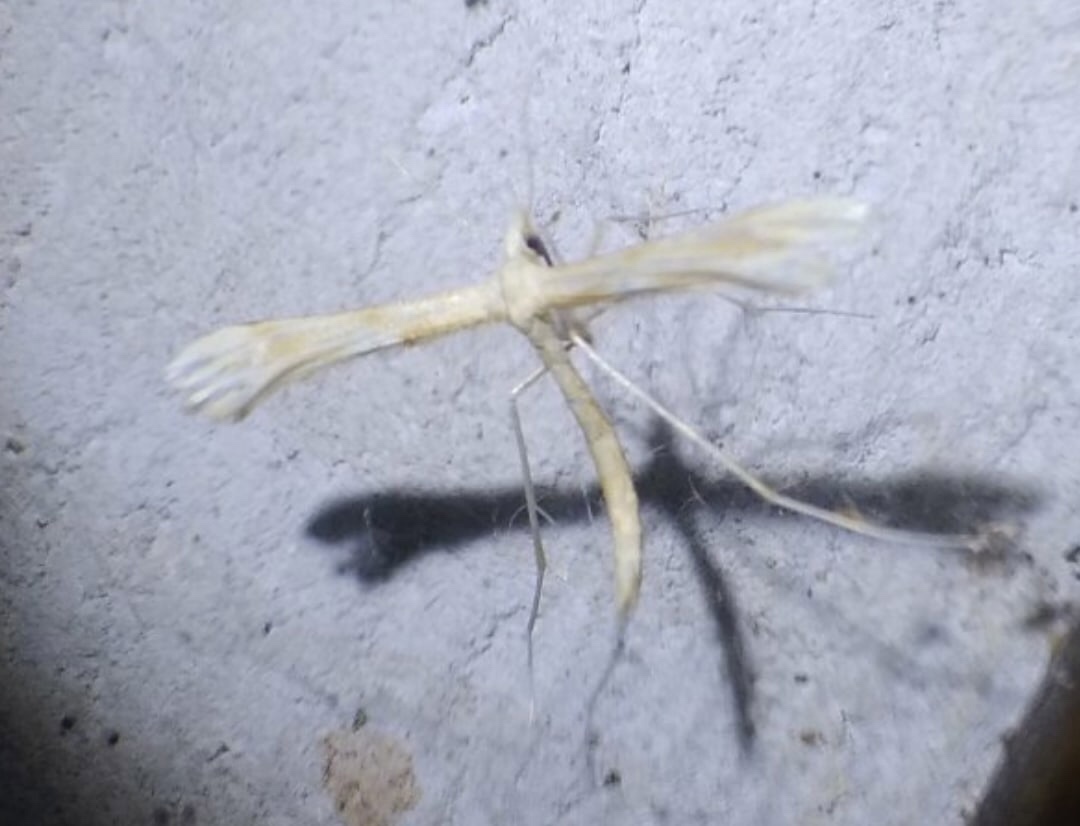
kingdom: Animalia
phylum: Arthropoda
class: Insecta
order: Lepidoptera
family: Pterophoridae
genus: Gillmeria
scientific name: Gillmeria ochrodactyla
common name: Tansy plume
